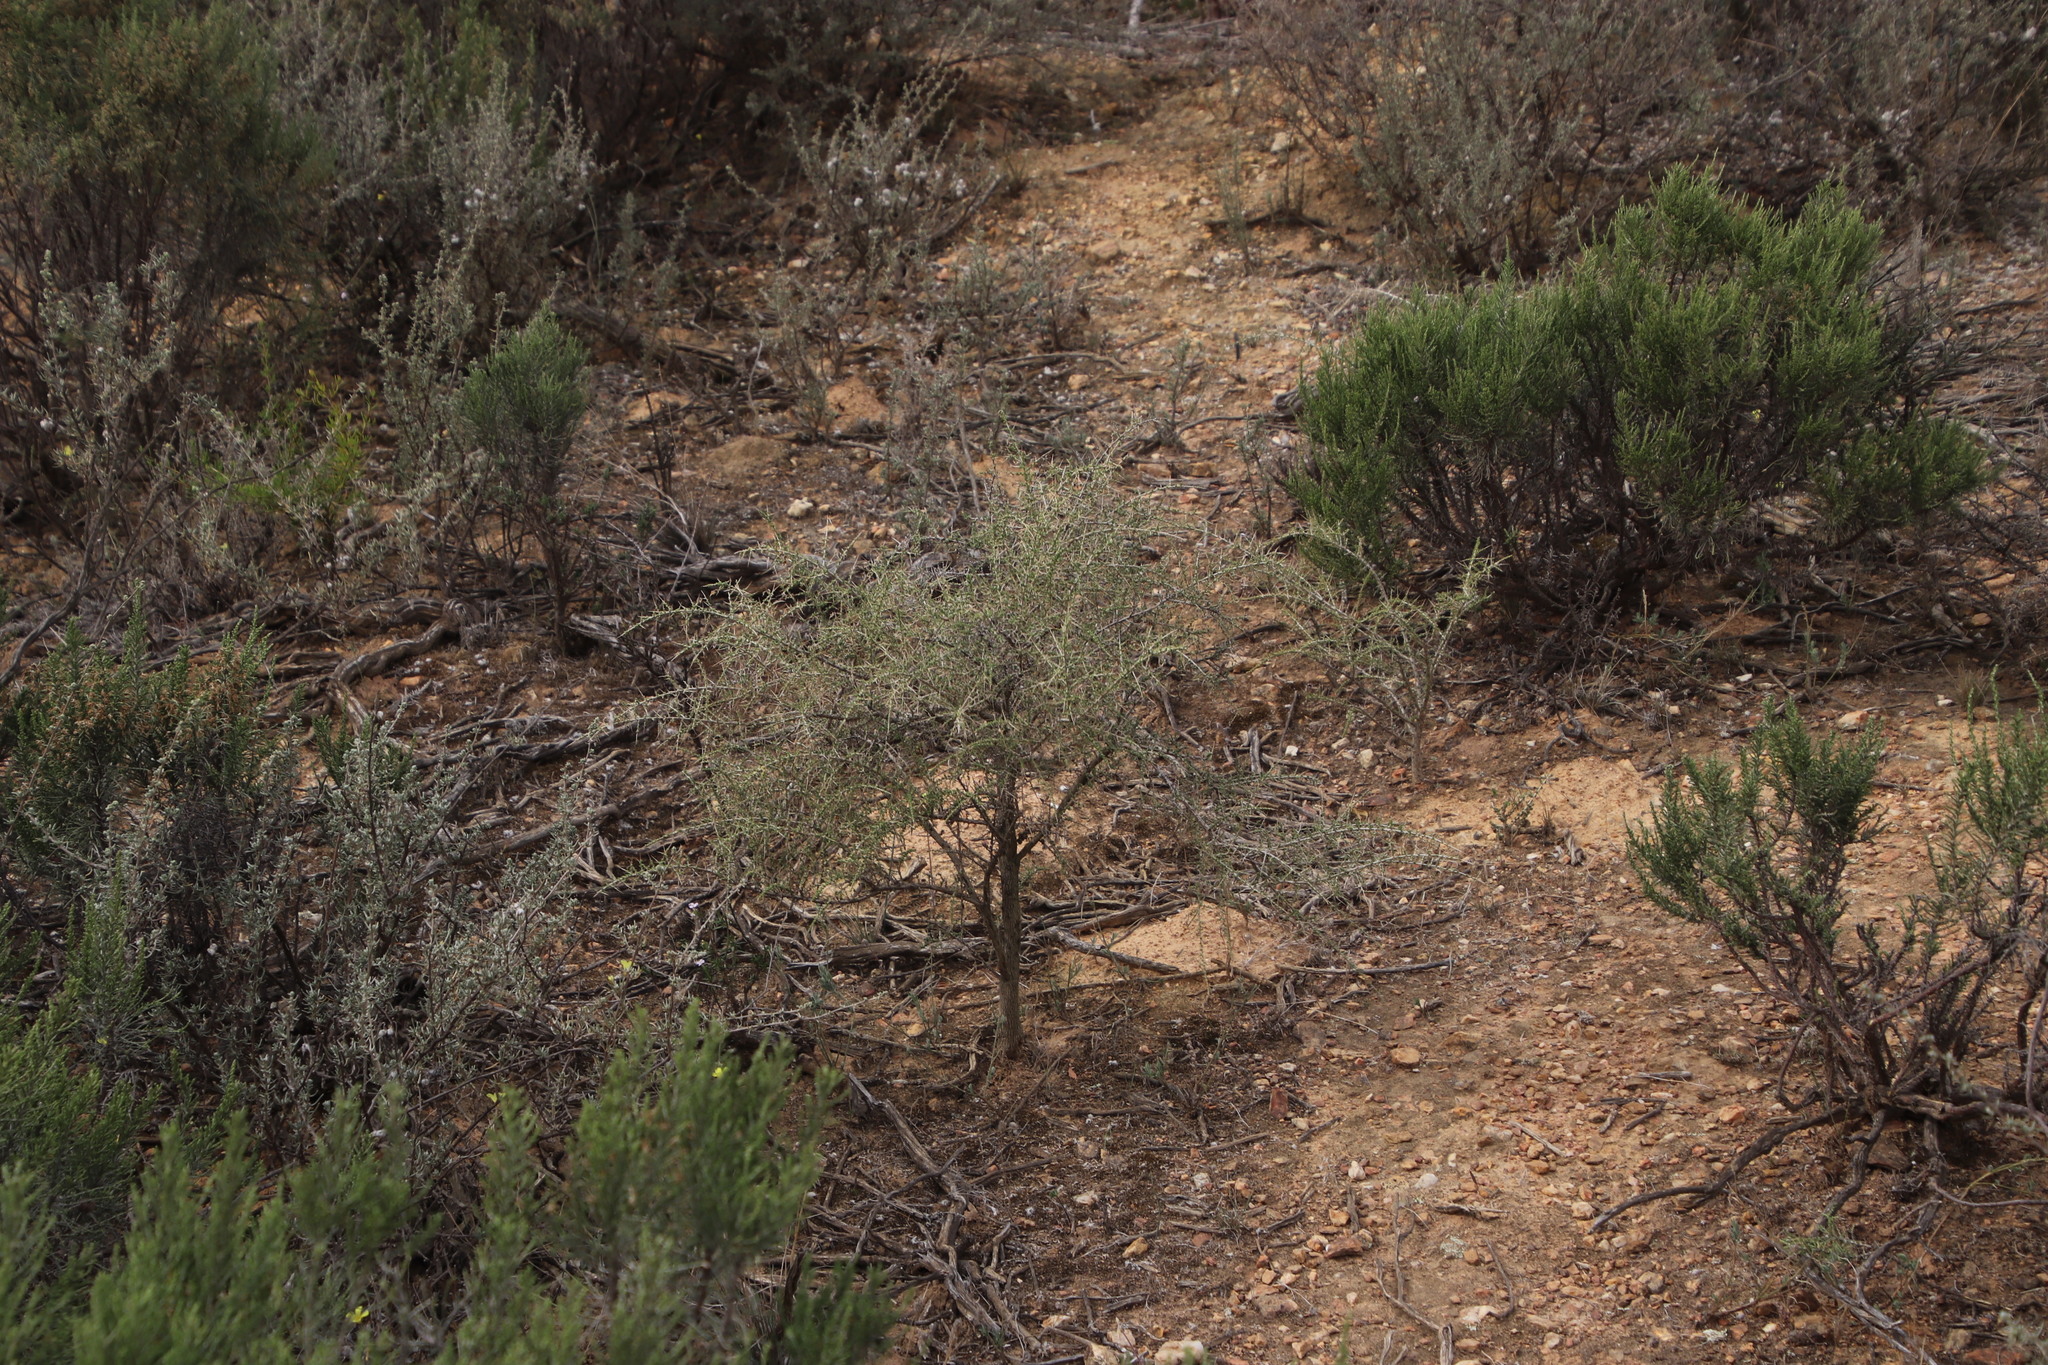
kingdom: Plantae
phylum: Tracheophyta
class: Magnoliopsida
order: Fabales
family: Fabaceae
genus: Aspalathus
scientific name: Aspalathus acuminata
